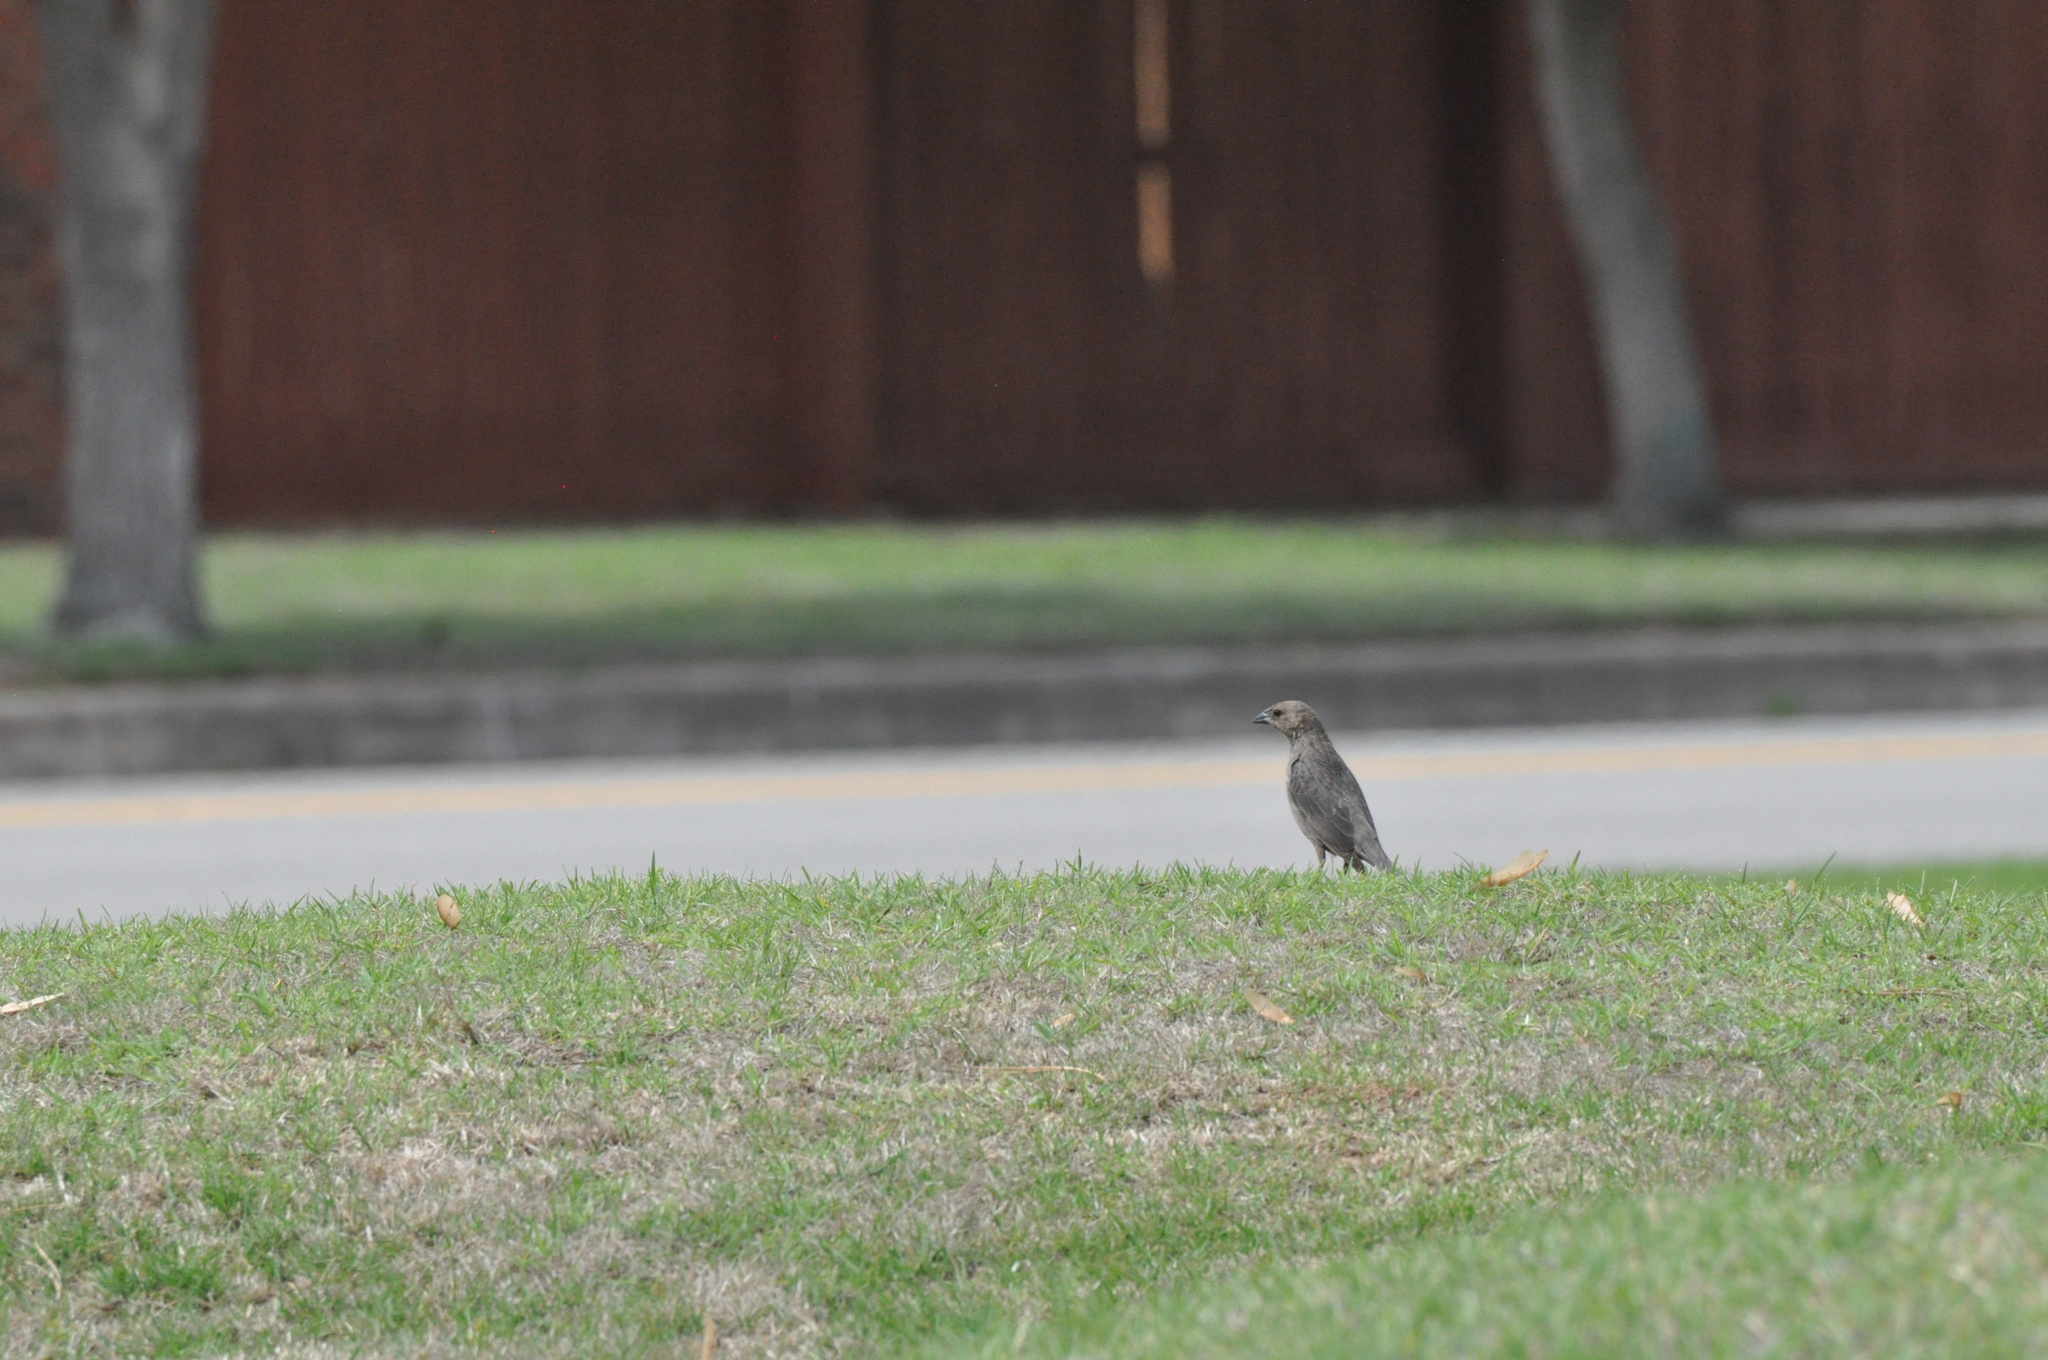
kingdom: Animalia
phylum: Chordata
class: Aves
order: Passeriformes
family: Icteridae
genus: Molothrus
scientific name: Molothrus ater
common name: Brown-headed cowbird
